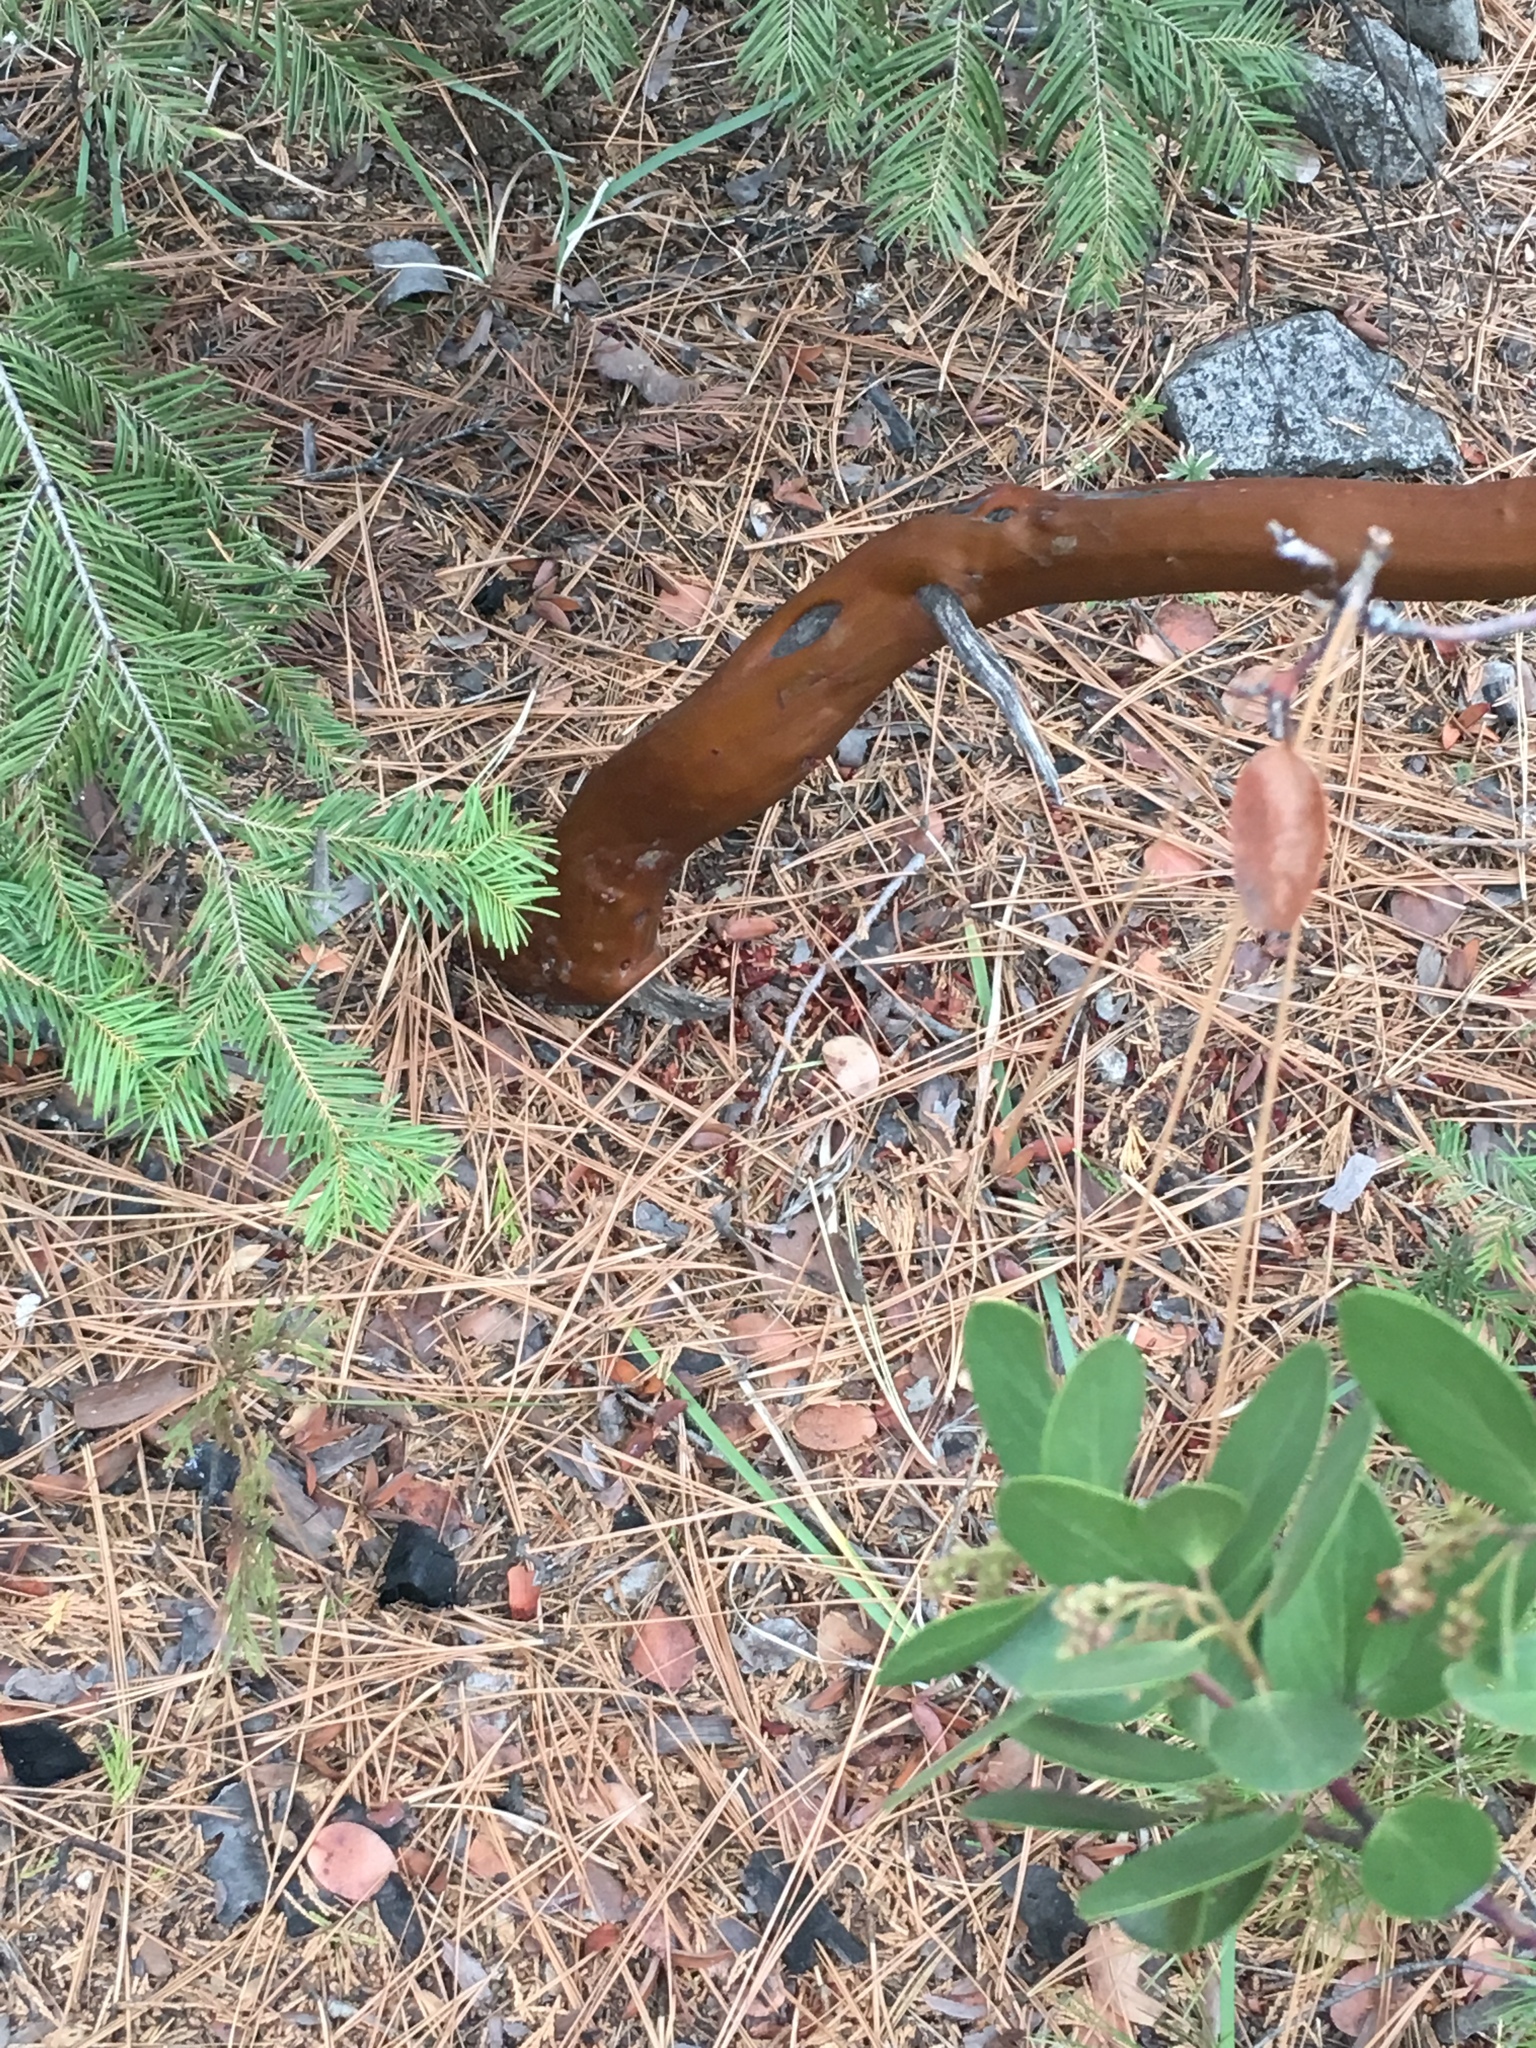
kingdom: Plantae
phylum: Tracheophyta
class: Magnoliopsida
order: Ericales
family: Ericaceae
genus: Arctostaphylos
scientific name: Arctostaphylos patula
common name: Green-leaf manzanita
